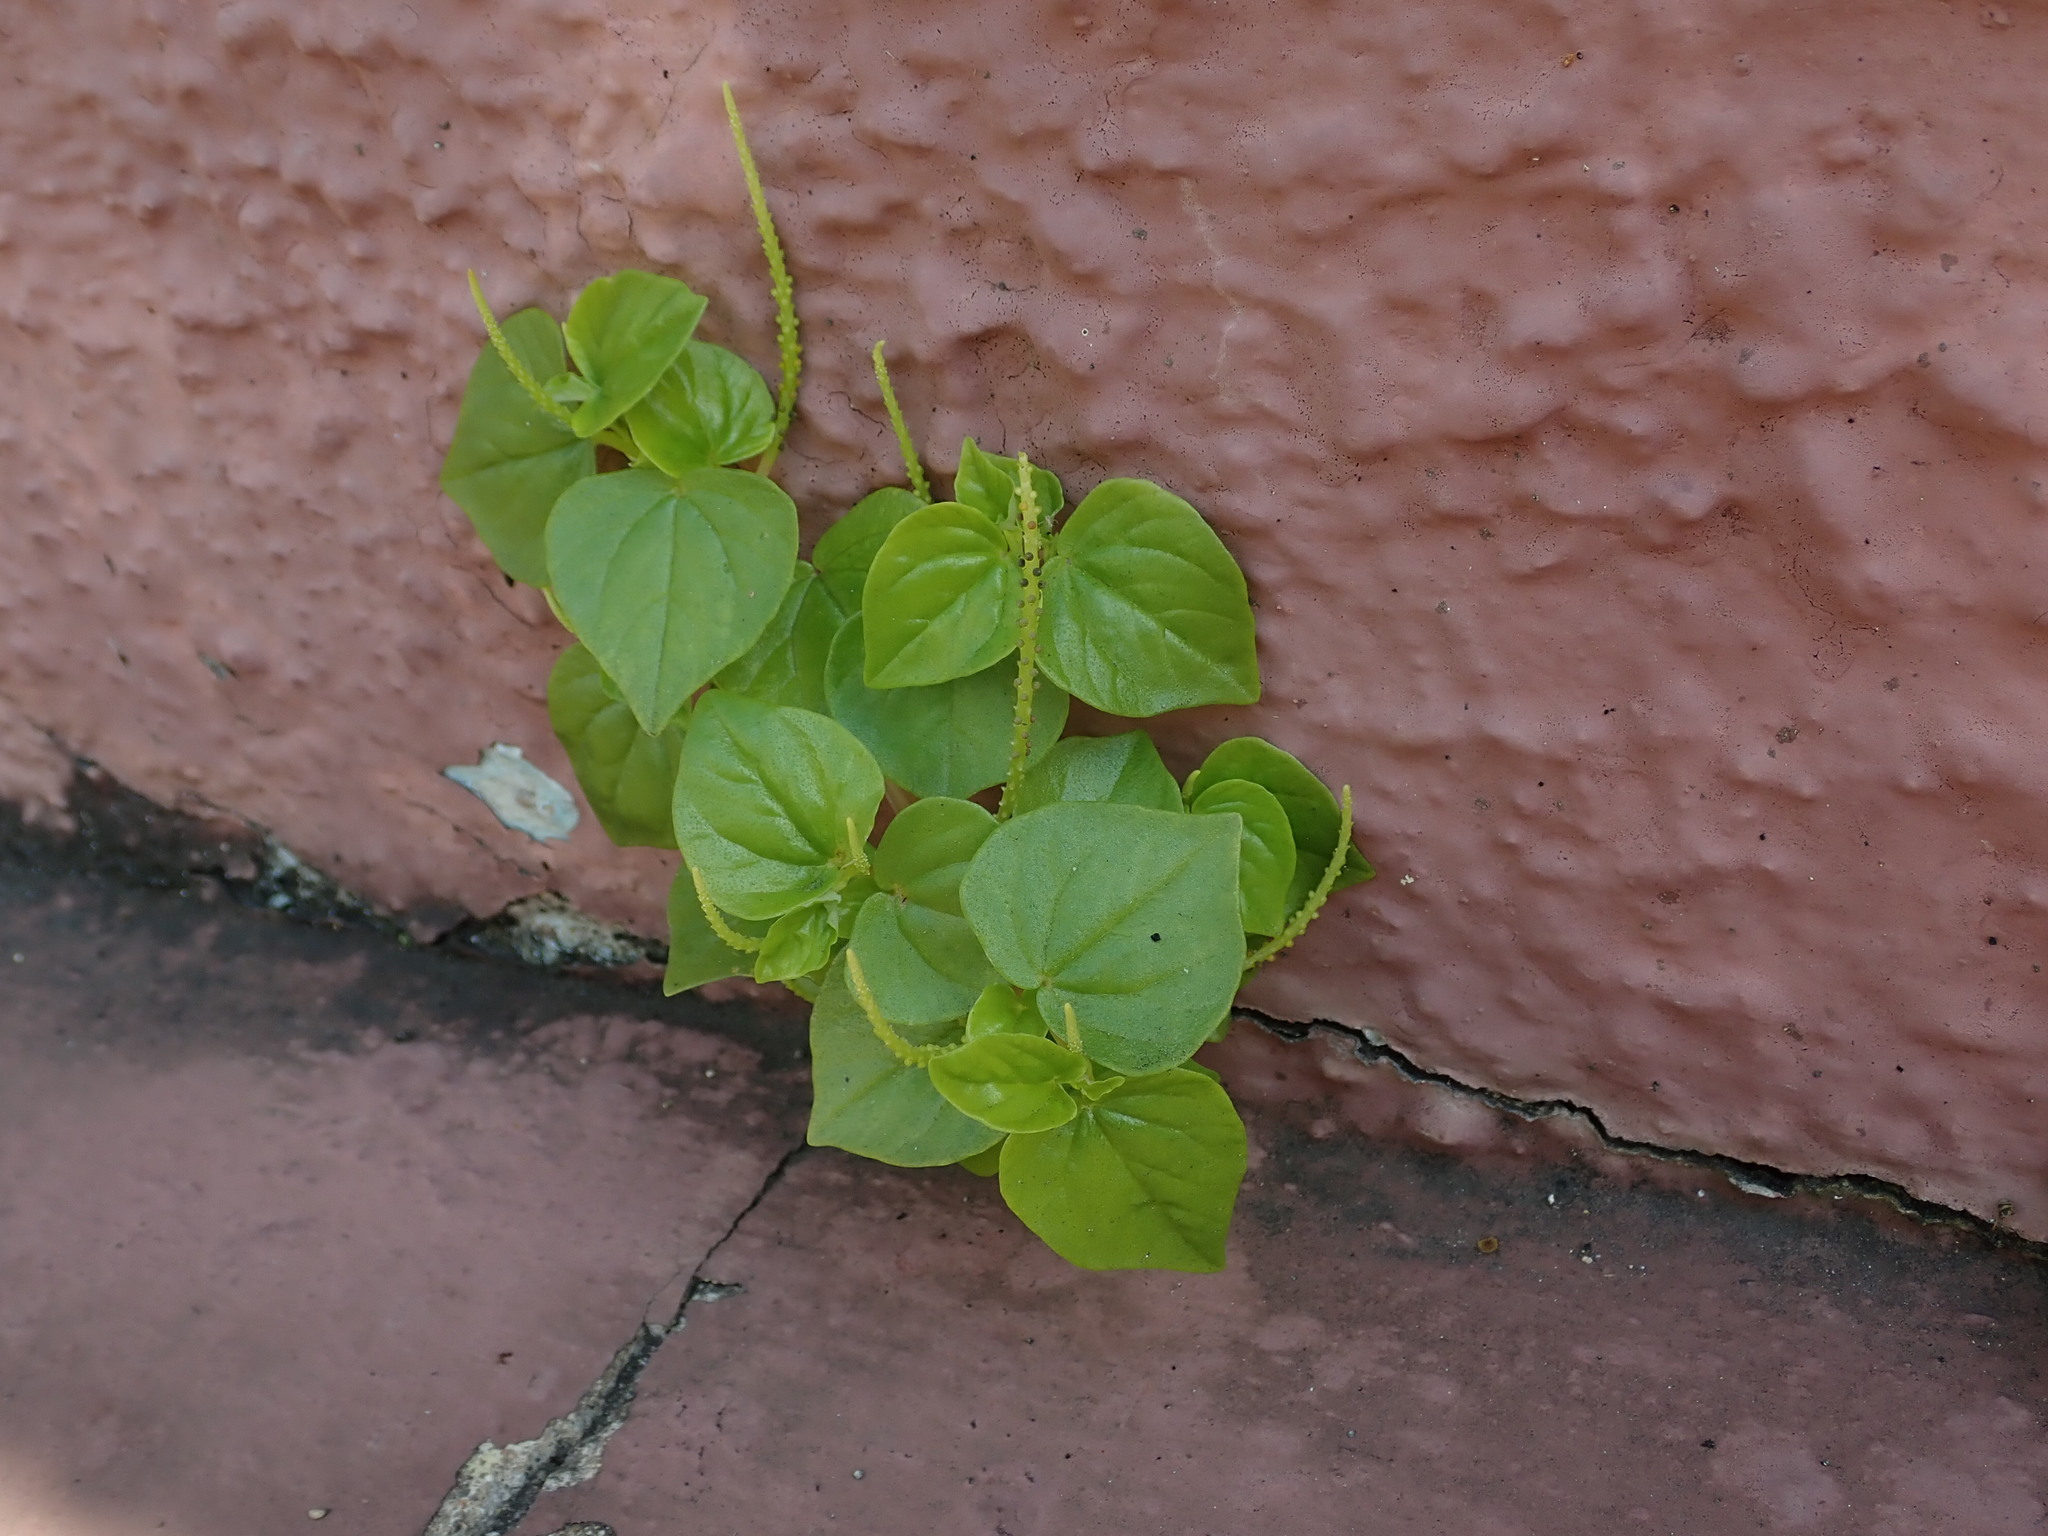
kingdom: Plantae
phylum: Tracheophyta
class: Magnoliopsida
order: Piperales
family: Piperaceae
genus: Peperomia
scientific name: Peperomia pellucida
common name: Man to man
